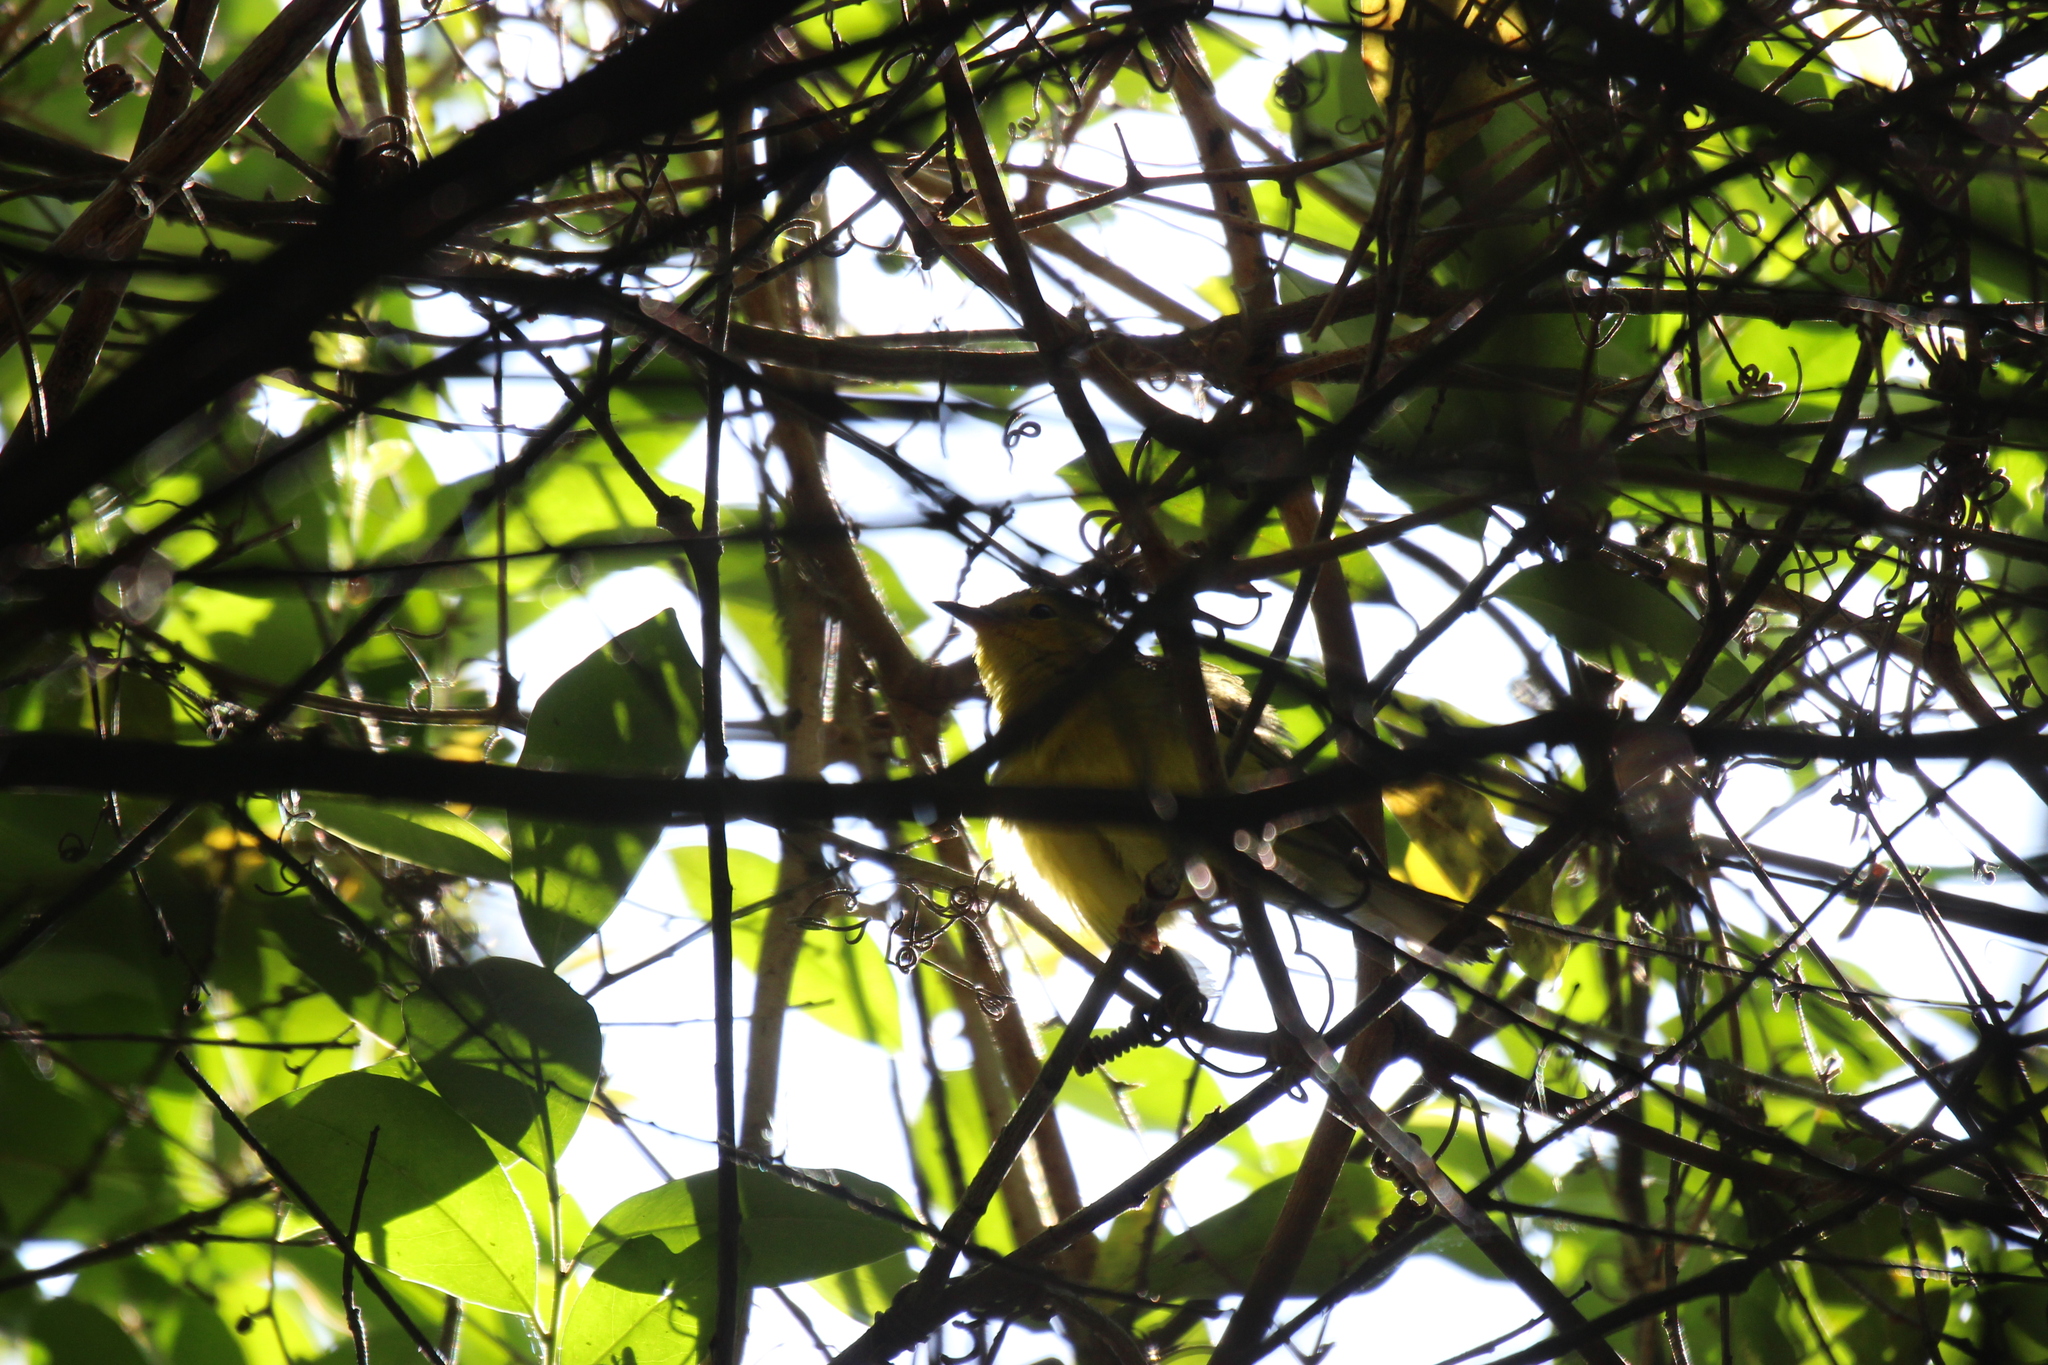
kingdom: Animalia
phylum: Chordata
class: Aves
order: Passeriformes
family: Parulidae
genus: Setophaga
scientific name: Setophaga citrina
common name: Hooded warbler
